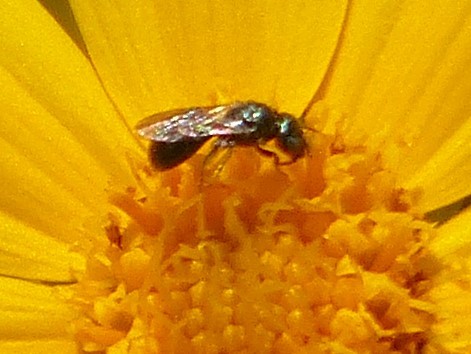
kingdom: Animalia
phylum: Arthropoda
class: Insecta
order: Hymenoptera
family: Apidae
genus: Zadontomerus
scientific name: Zadontomerus
